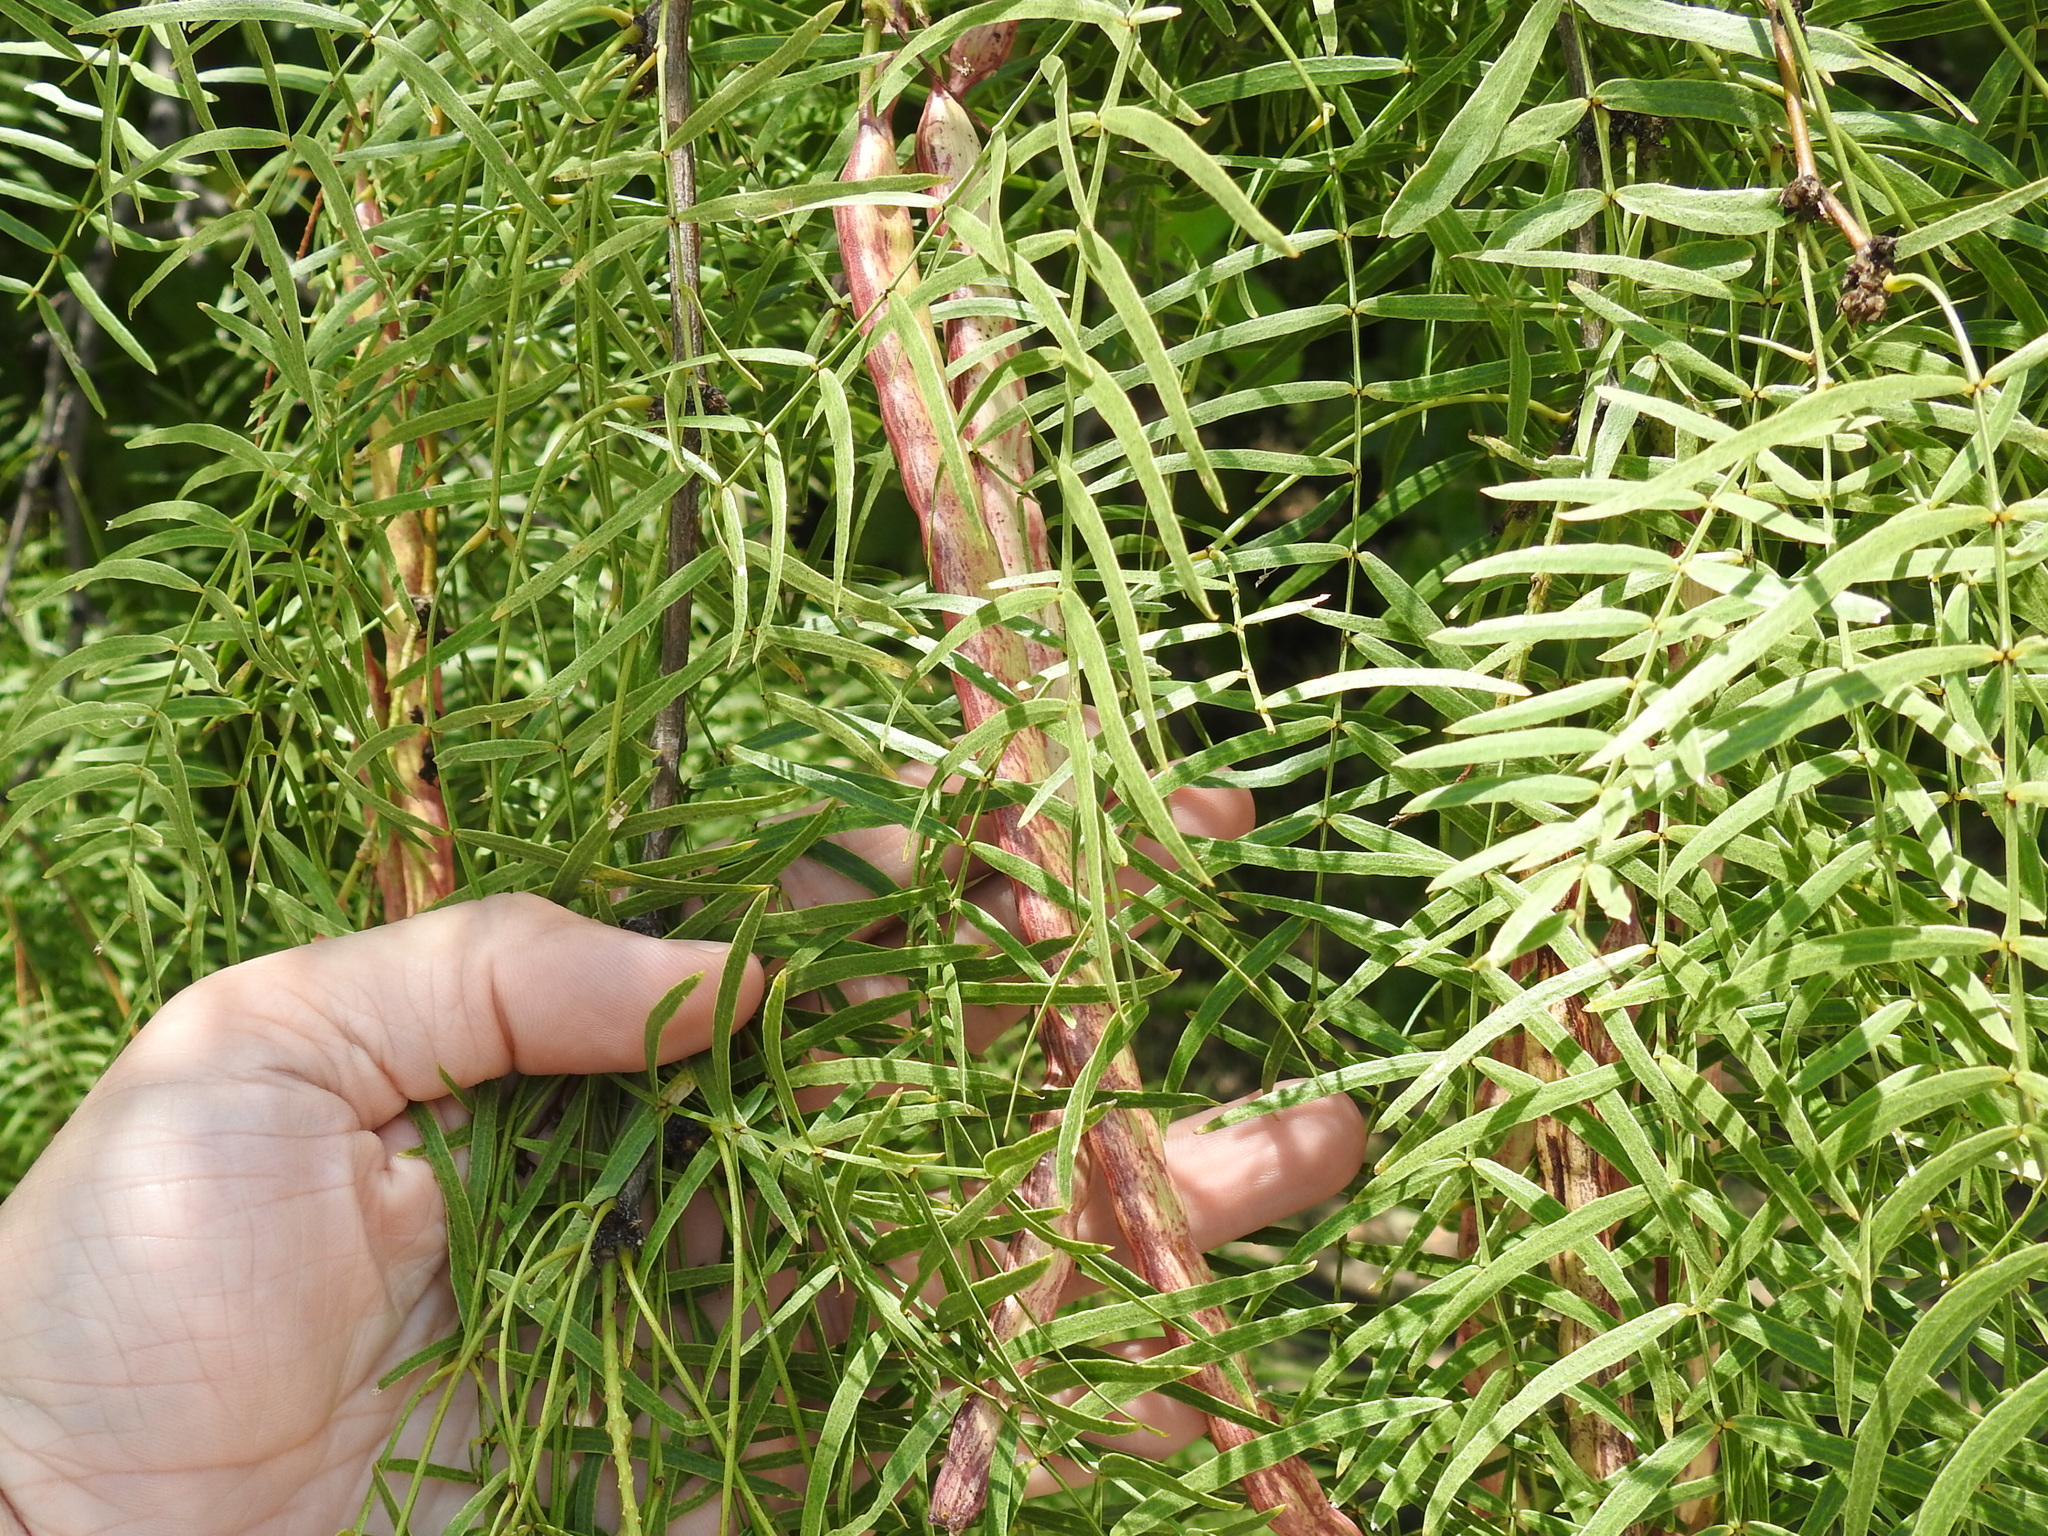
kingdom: Plantae
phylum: Tracheophyta
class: Magnoliopsida
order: Fabales
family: Fabaceae
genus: Prosopis
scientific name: Prosopis glandulosa
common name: Honey mesquite
